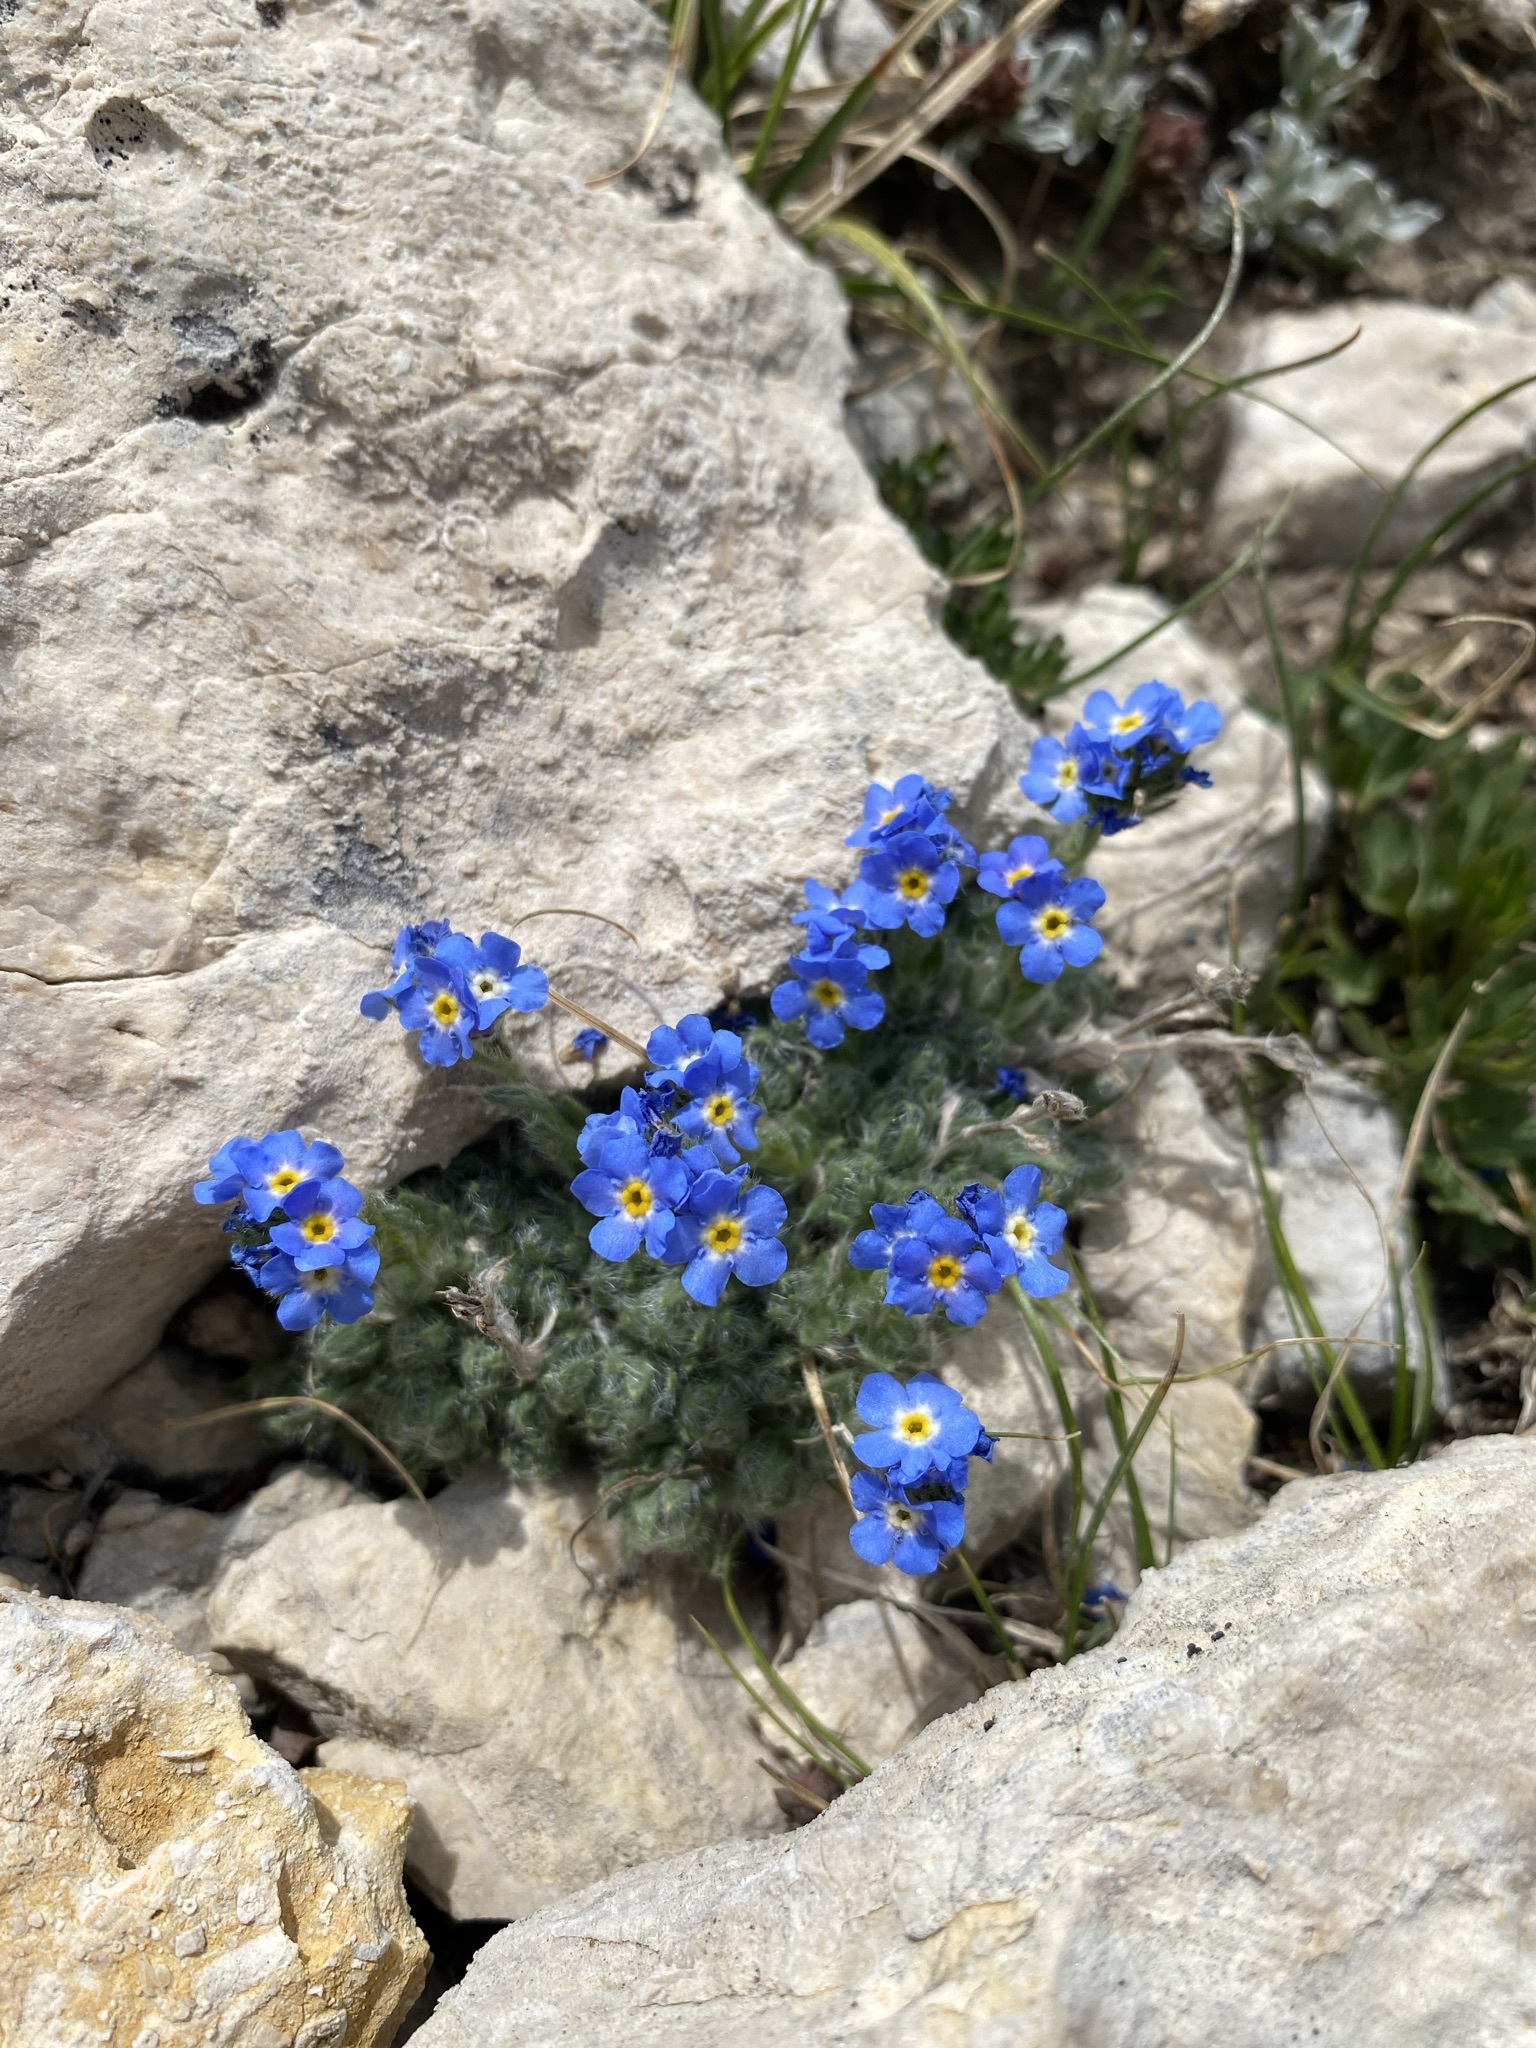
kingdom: Plantae
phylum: Tracheophyta
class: Magnoliopsida
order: Boraginales
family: Boraginaceae
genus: Eritrichium
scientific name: Eritrichium argenteum
